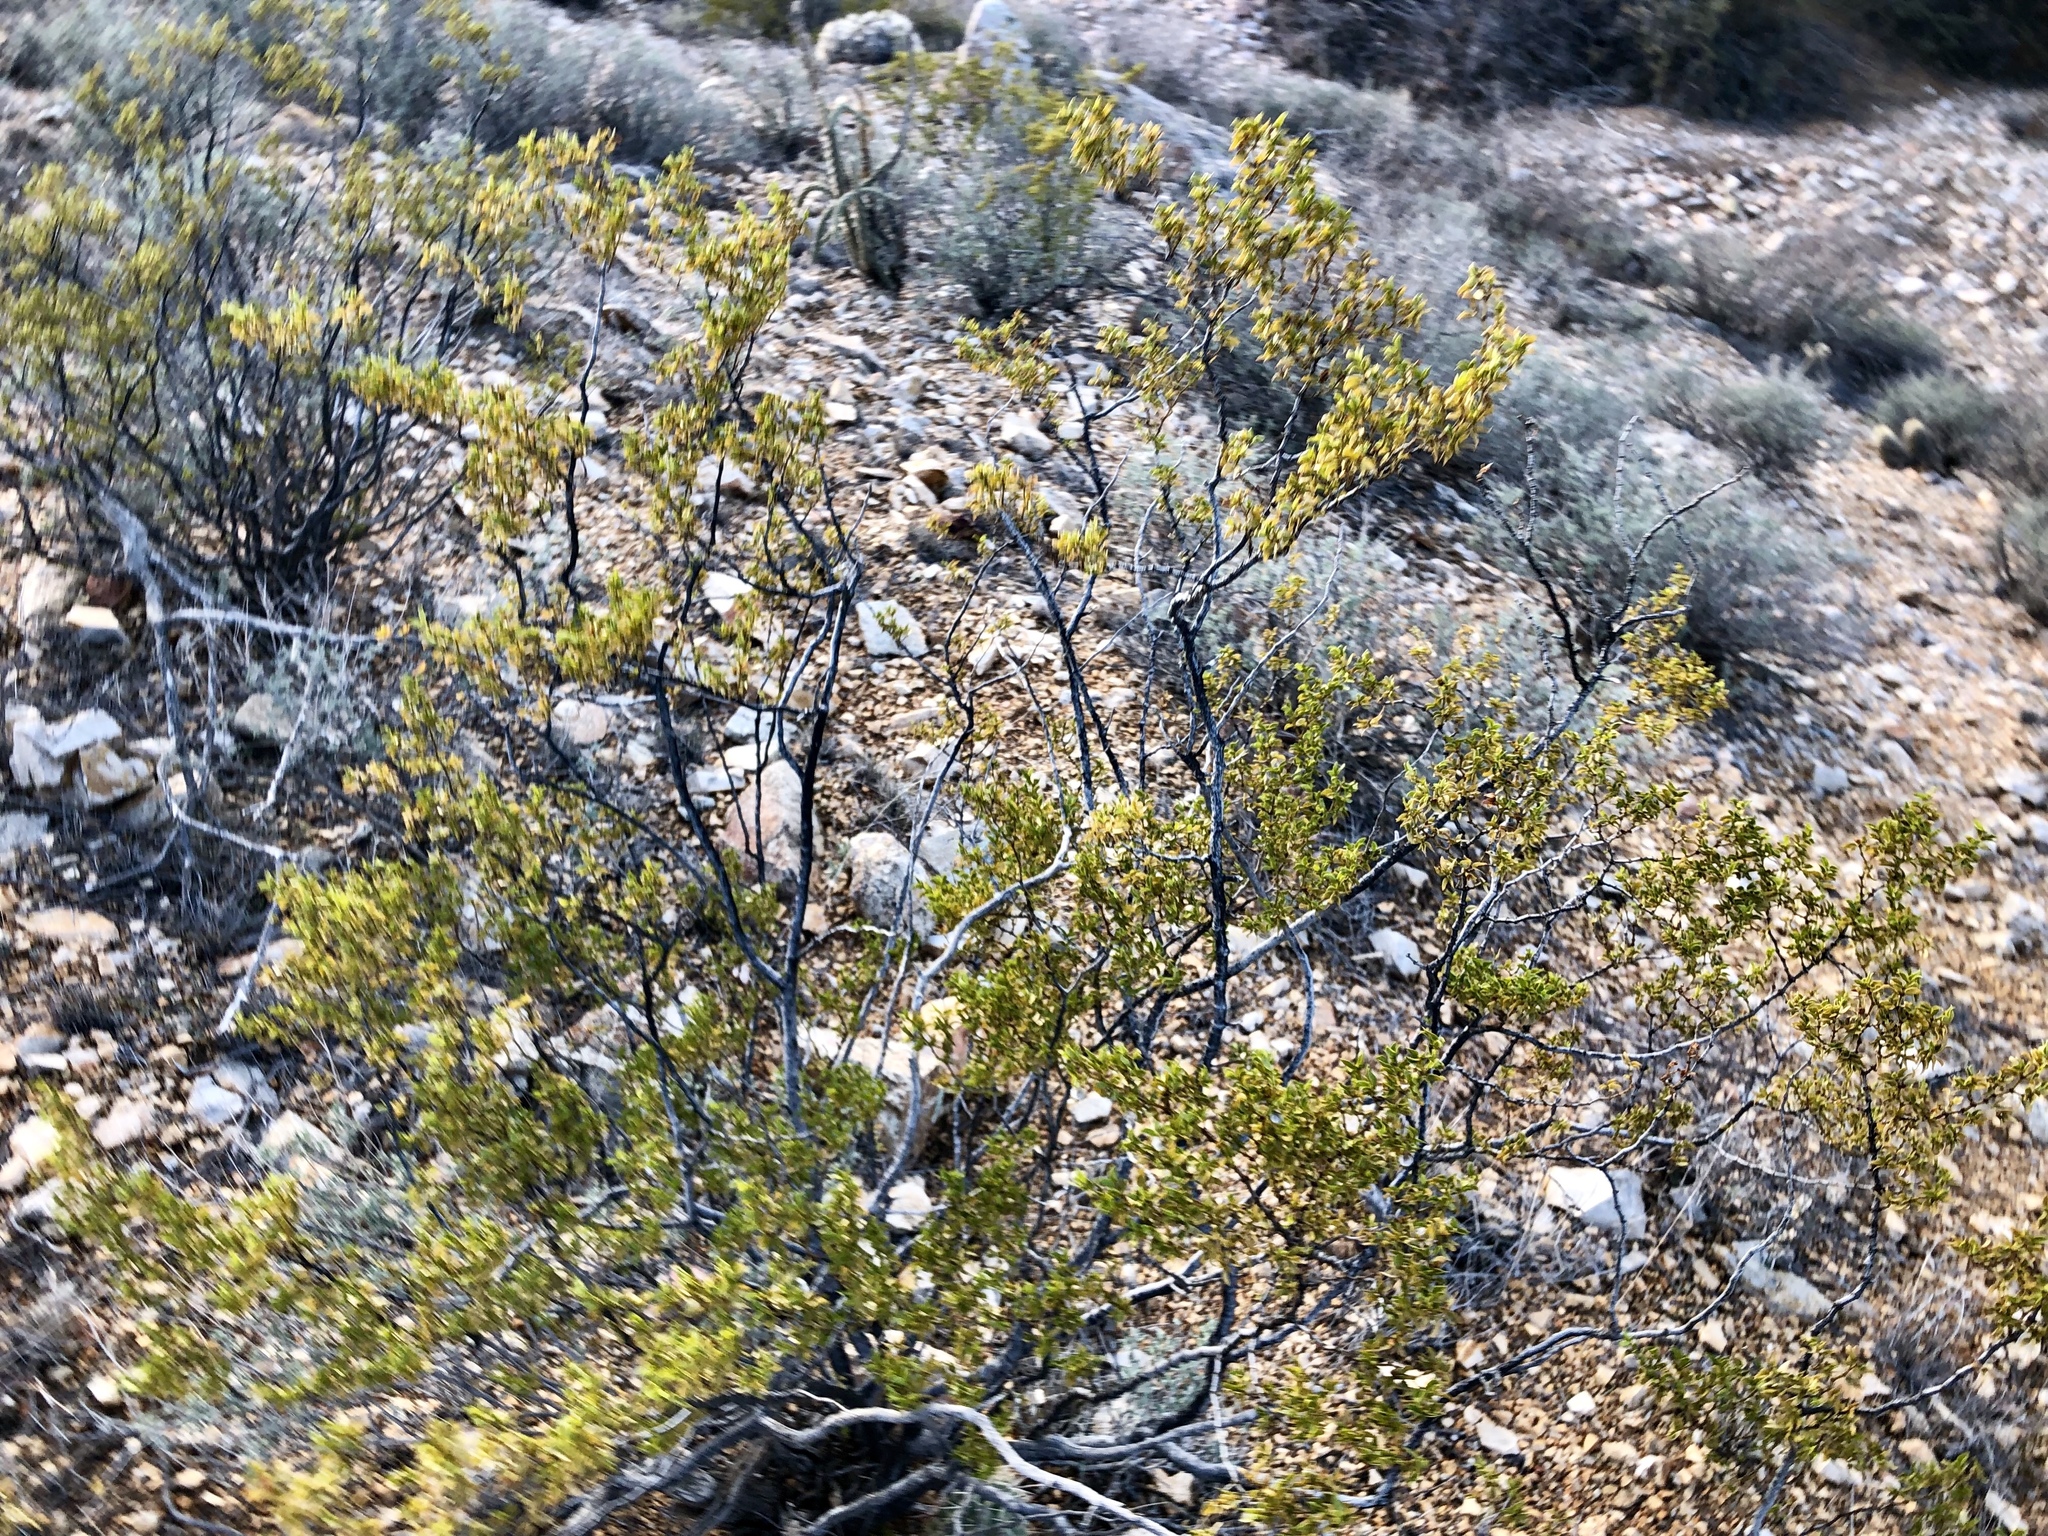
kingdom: Plantae
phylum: Tracheophyta
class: Magnoliopsida
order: Zygophyllales
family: Zygophyllaceae
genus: Larrea
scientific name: Larrea tridentata
